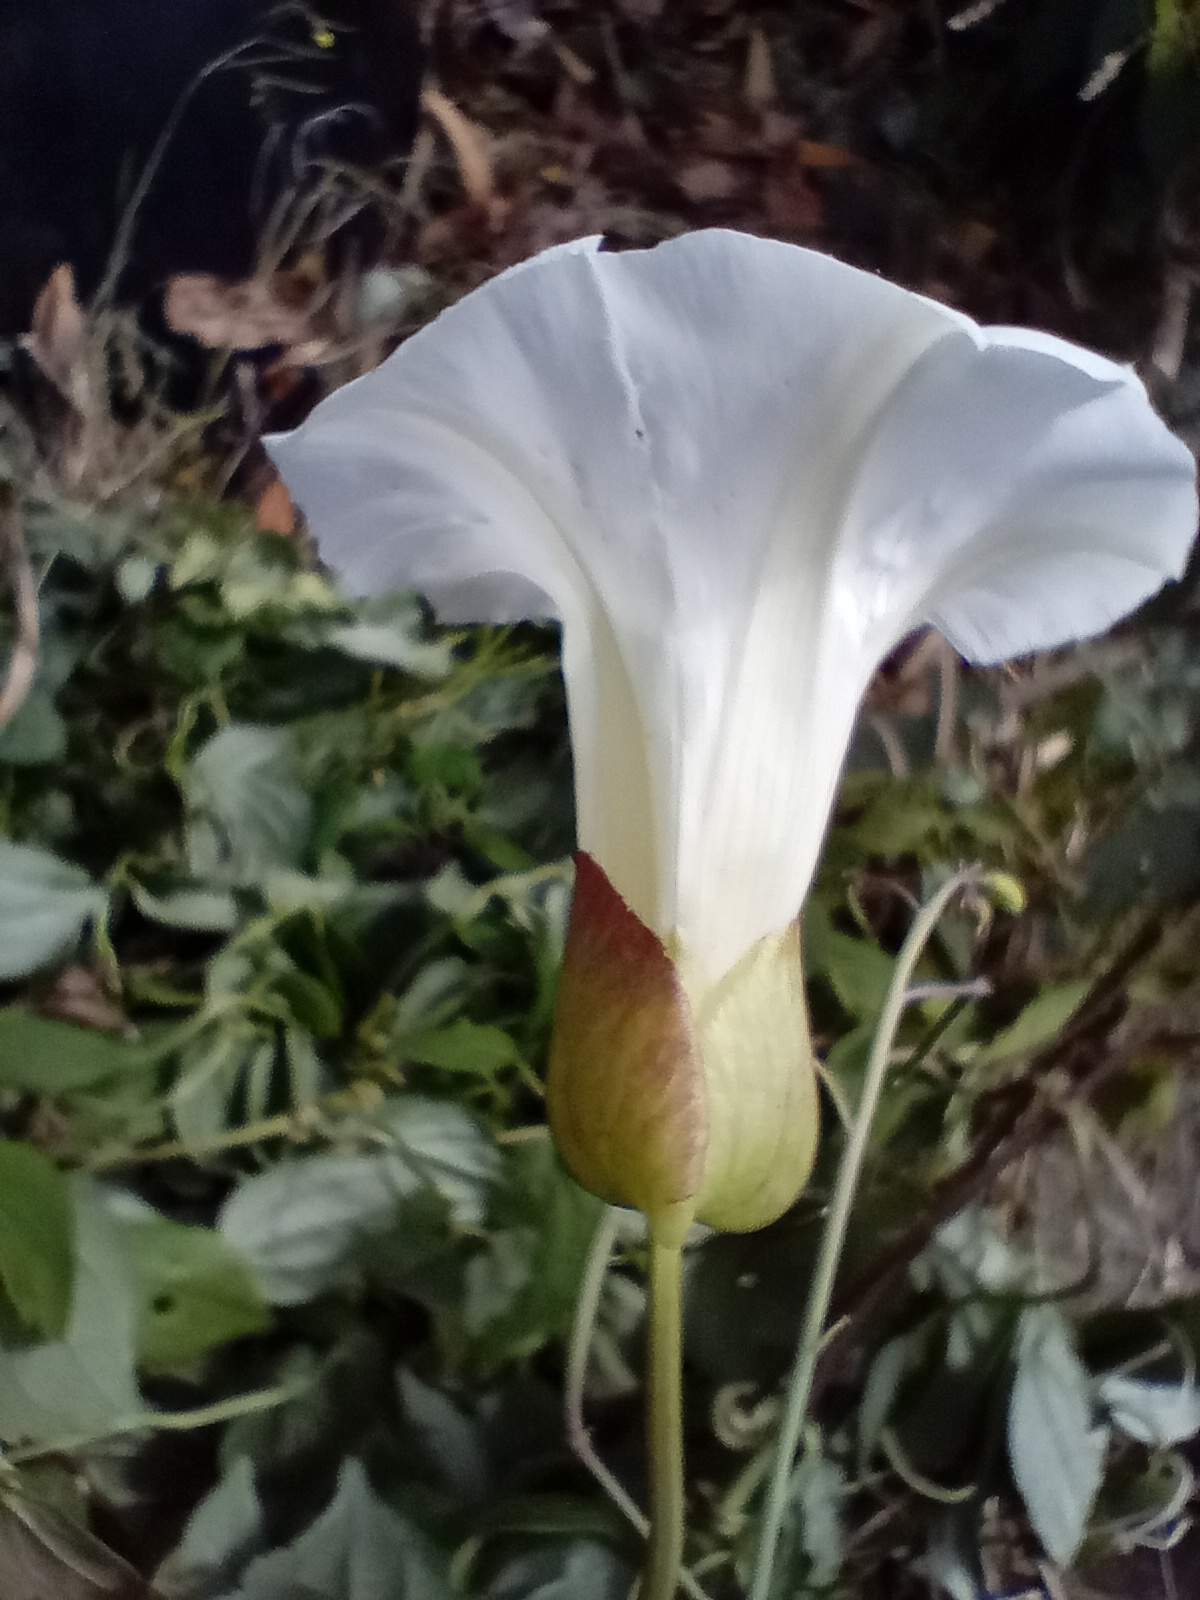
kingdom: Plantae
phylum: Tracheophyta
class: Magnoliopsida
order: Solanales
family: Convolvulaceae
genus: Calystegia
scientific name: Calystegia silvatica
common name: Large bindweed
